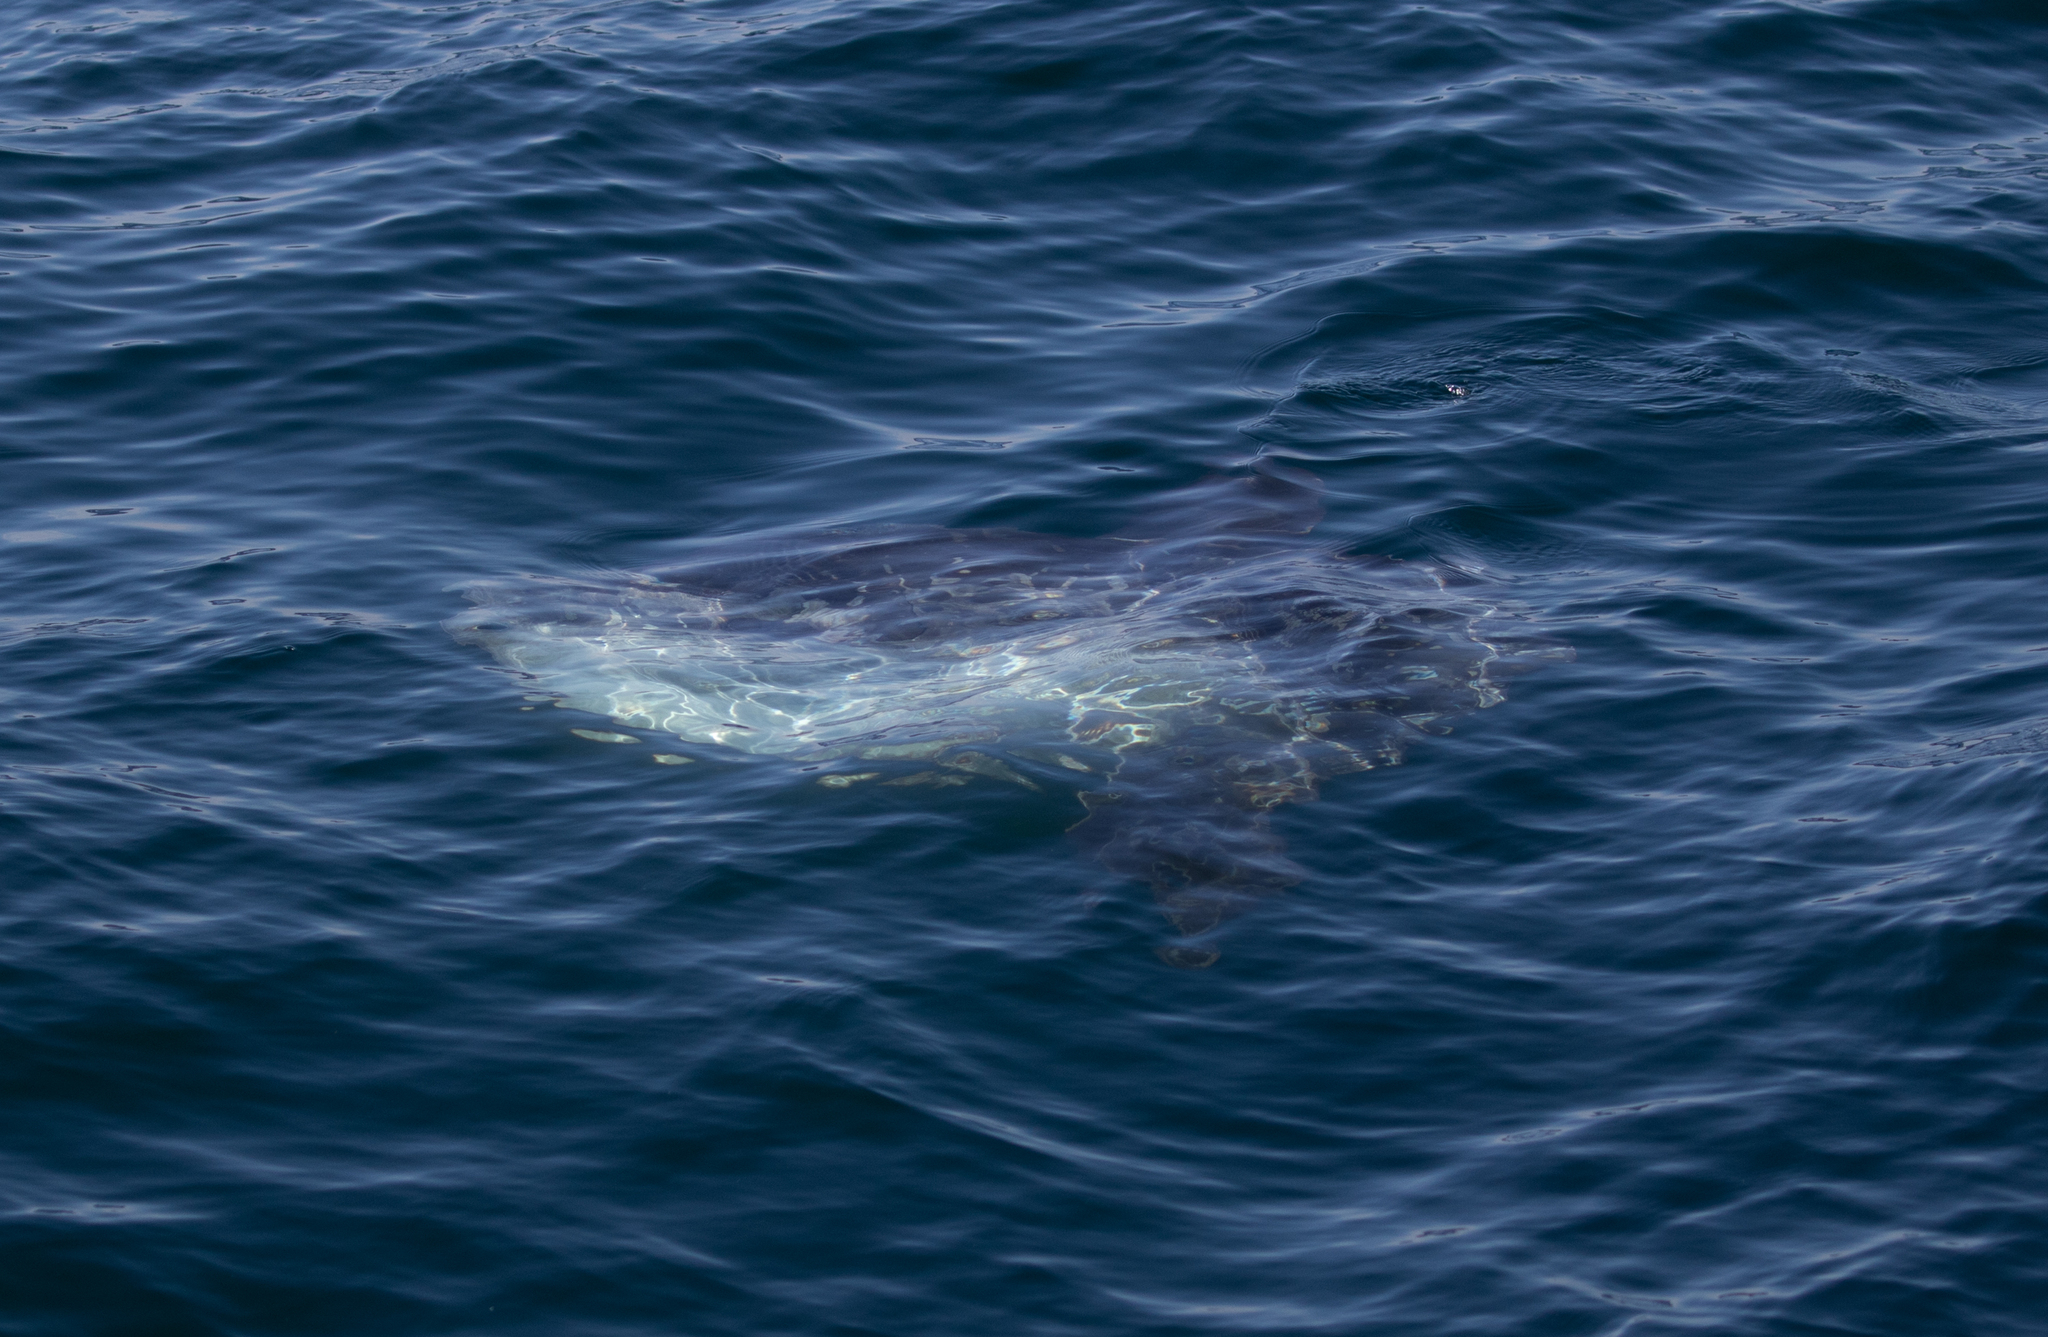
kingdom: Animalia
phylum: Chordata
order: Tetraodontiformes
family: Molidae
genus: Mola
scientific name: Mola mola
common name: Ocean sunfish
